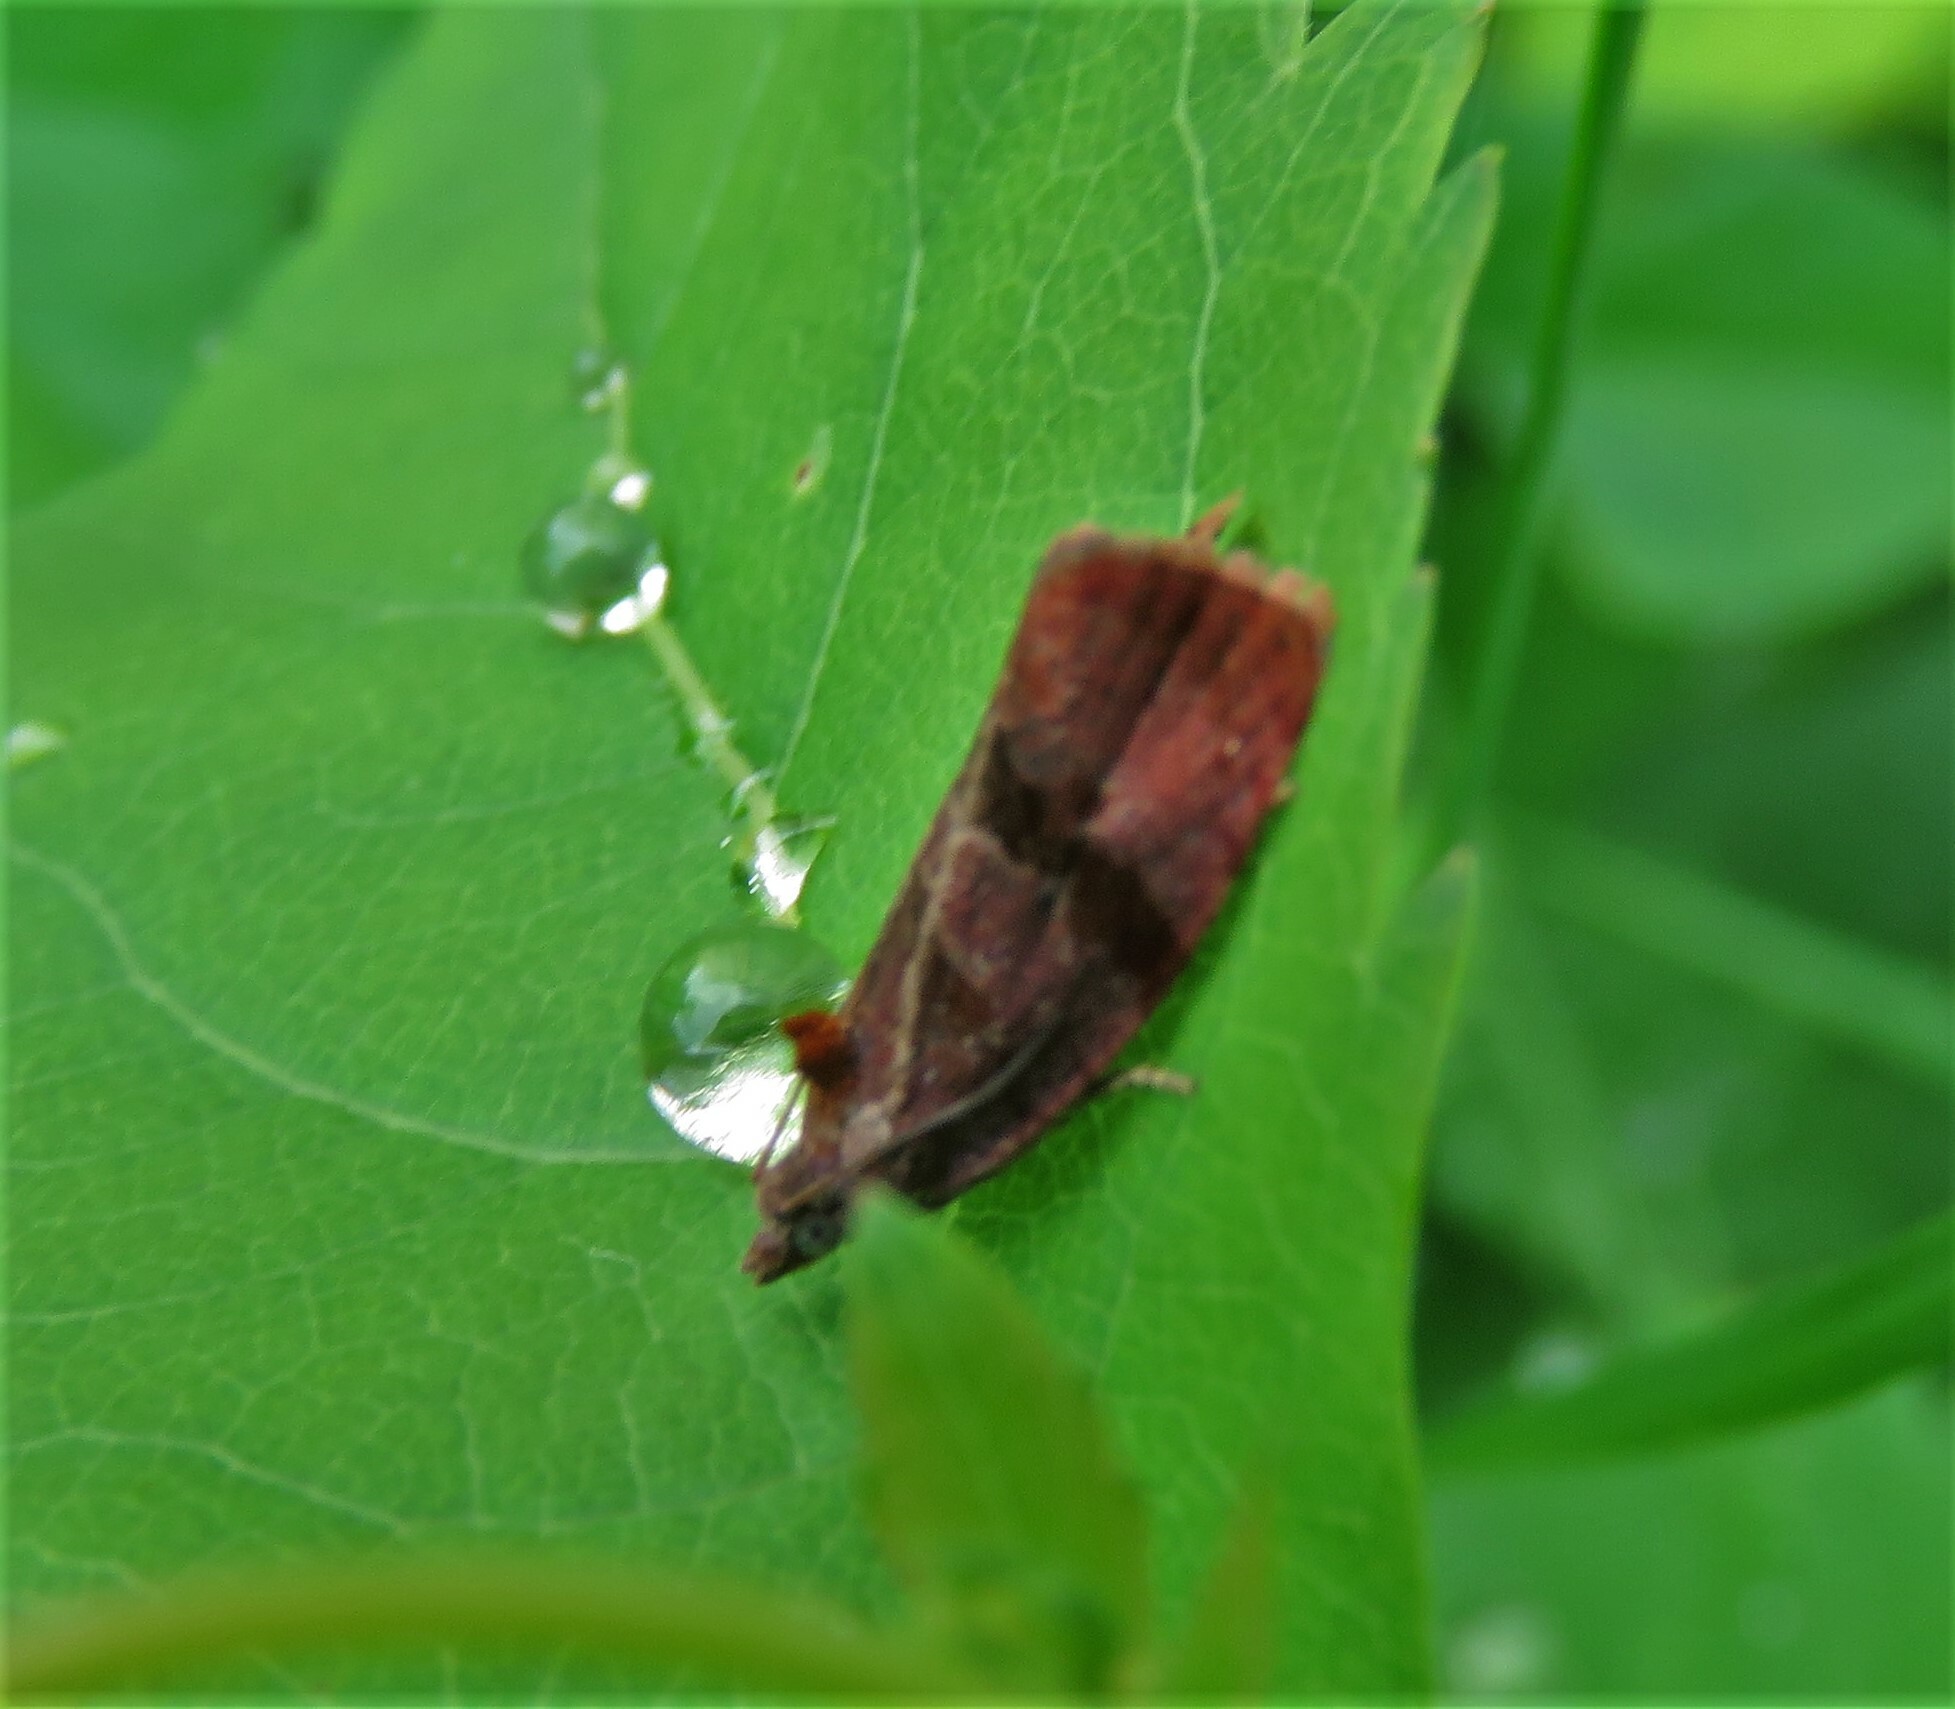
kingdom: Animalia
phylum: Arthropoda
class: Insecta
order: Lepidoptera
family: Tortricidae
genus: Evora
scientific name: Evora hemidesma
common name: Spirea leaftier moth
